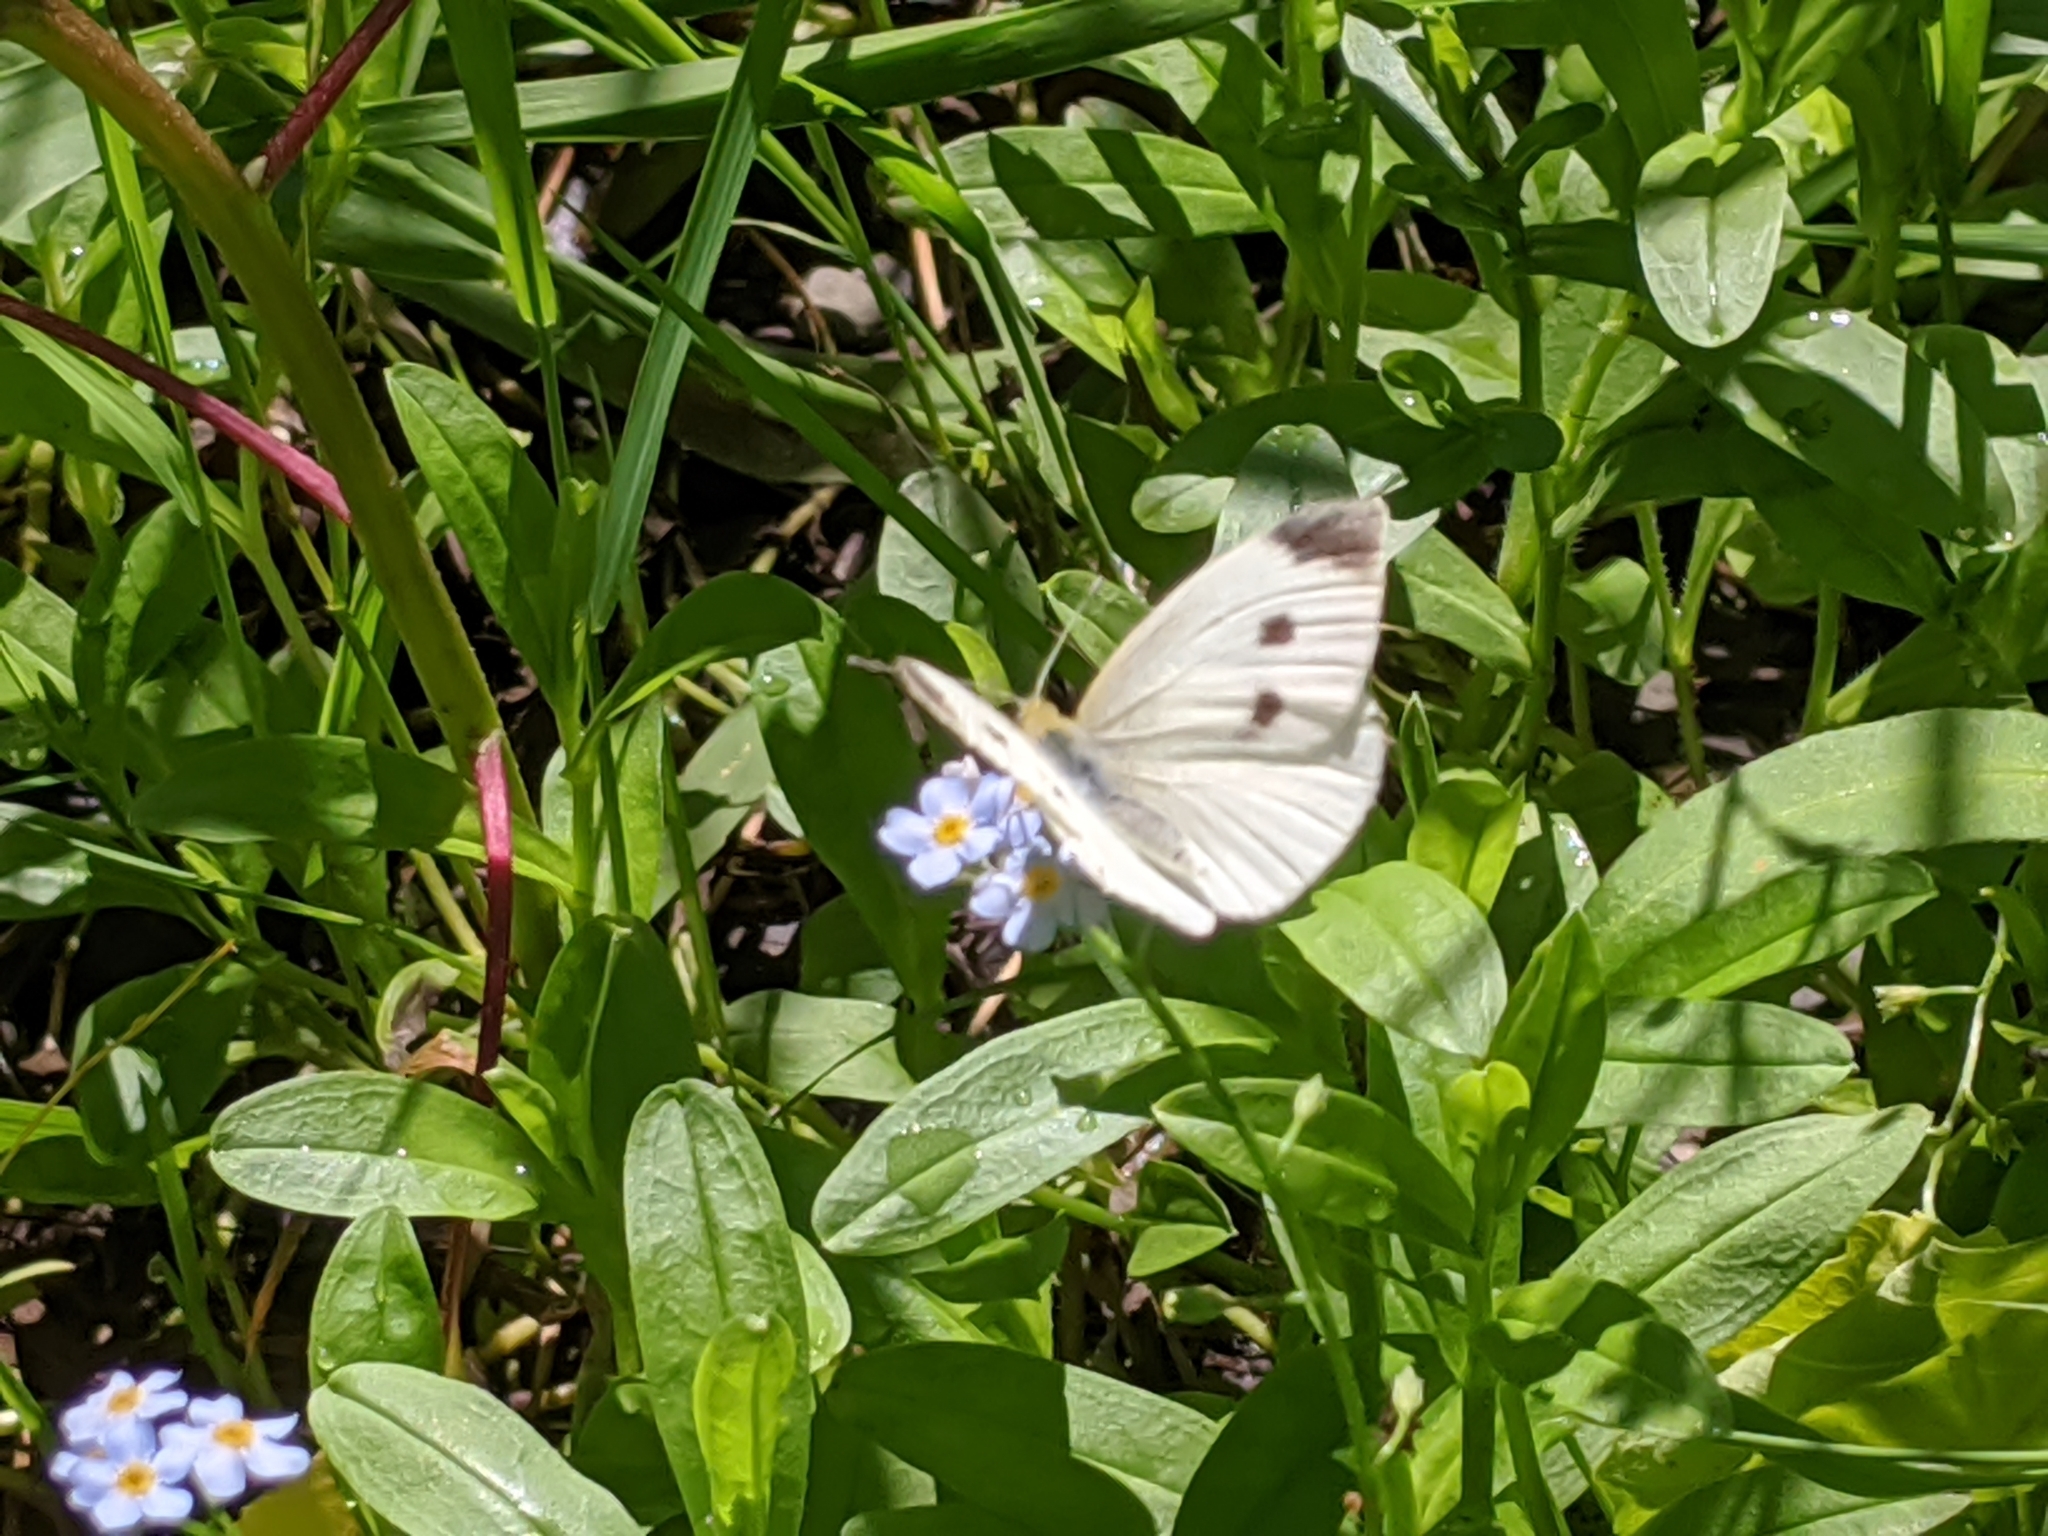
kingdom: Animalia
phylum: Arthropoda
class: Insecta
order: Lepidoptera
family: Pieridae
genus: Pieris
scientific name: Pieris rapae
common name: Small white
